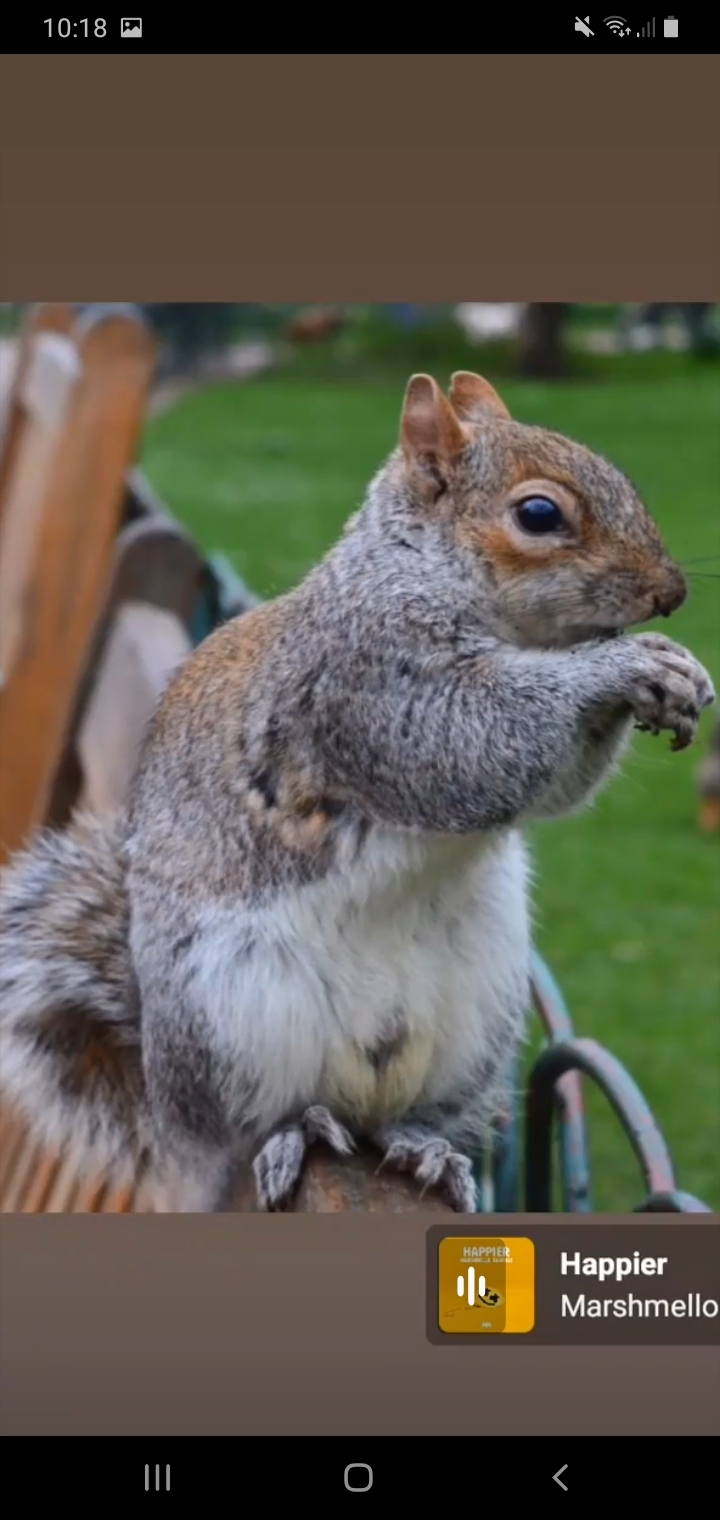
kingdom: Animalia
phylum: Chordata
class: Mammalia
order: Rodentia
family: Sciuridae
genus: Sciurus
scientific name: Sciurus carolinensis
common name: Eastern gray squirrel
